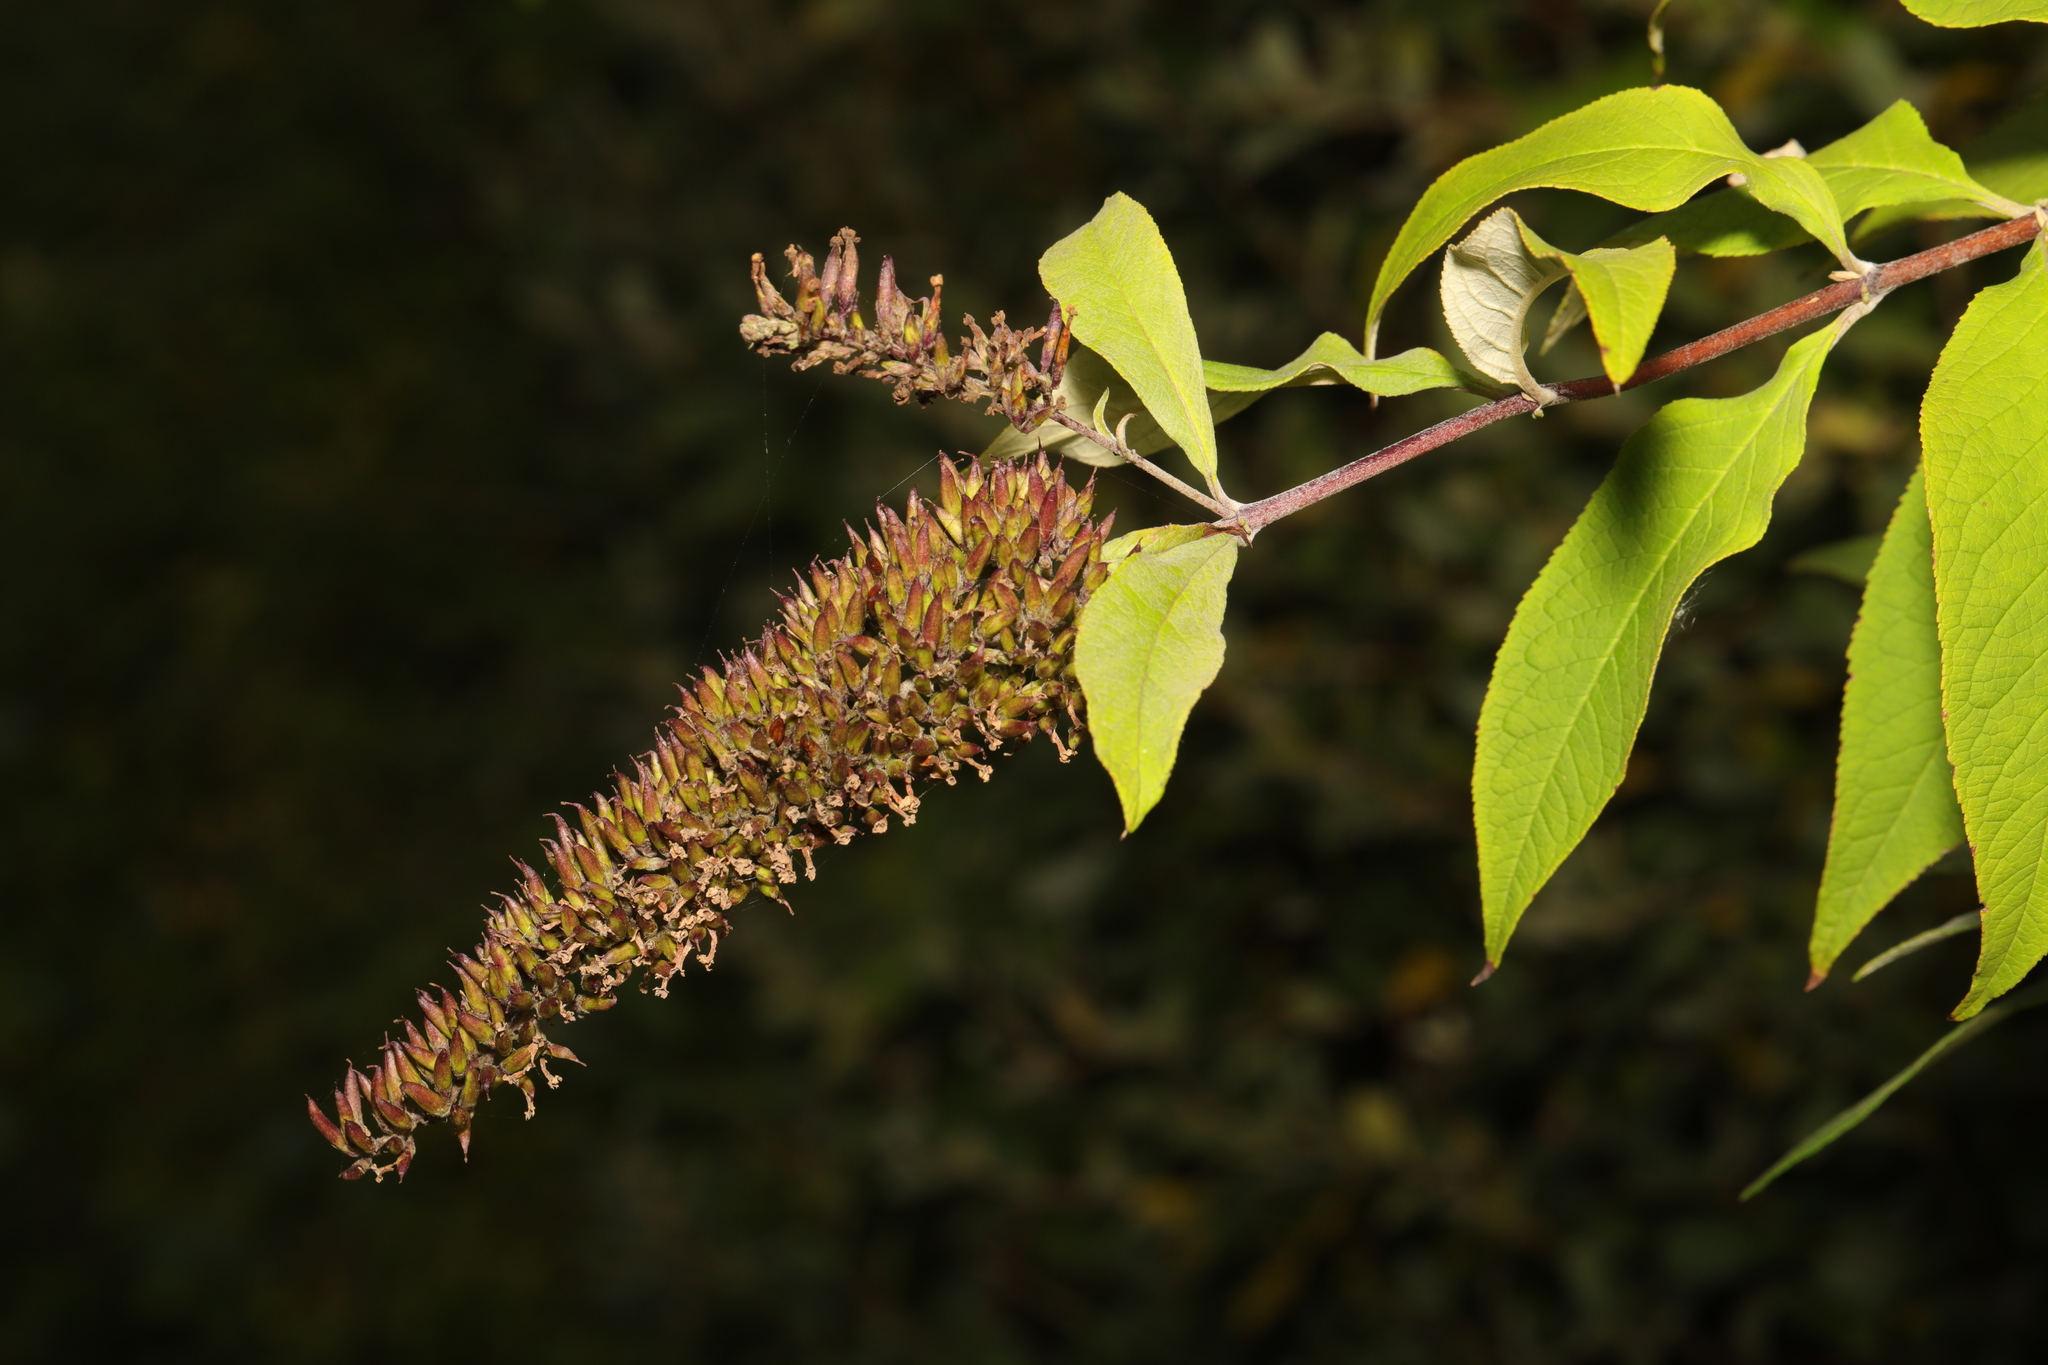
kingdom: Plantae
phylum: Tracheophyta
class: Magnoliopsida
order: Lamiales
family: Scrophulariaceae
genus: Buddleja
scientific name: Buddleja davidii
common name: Butterfly-bush
